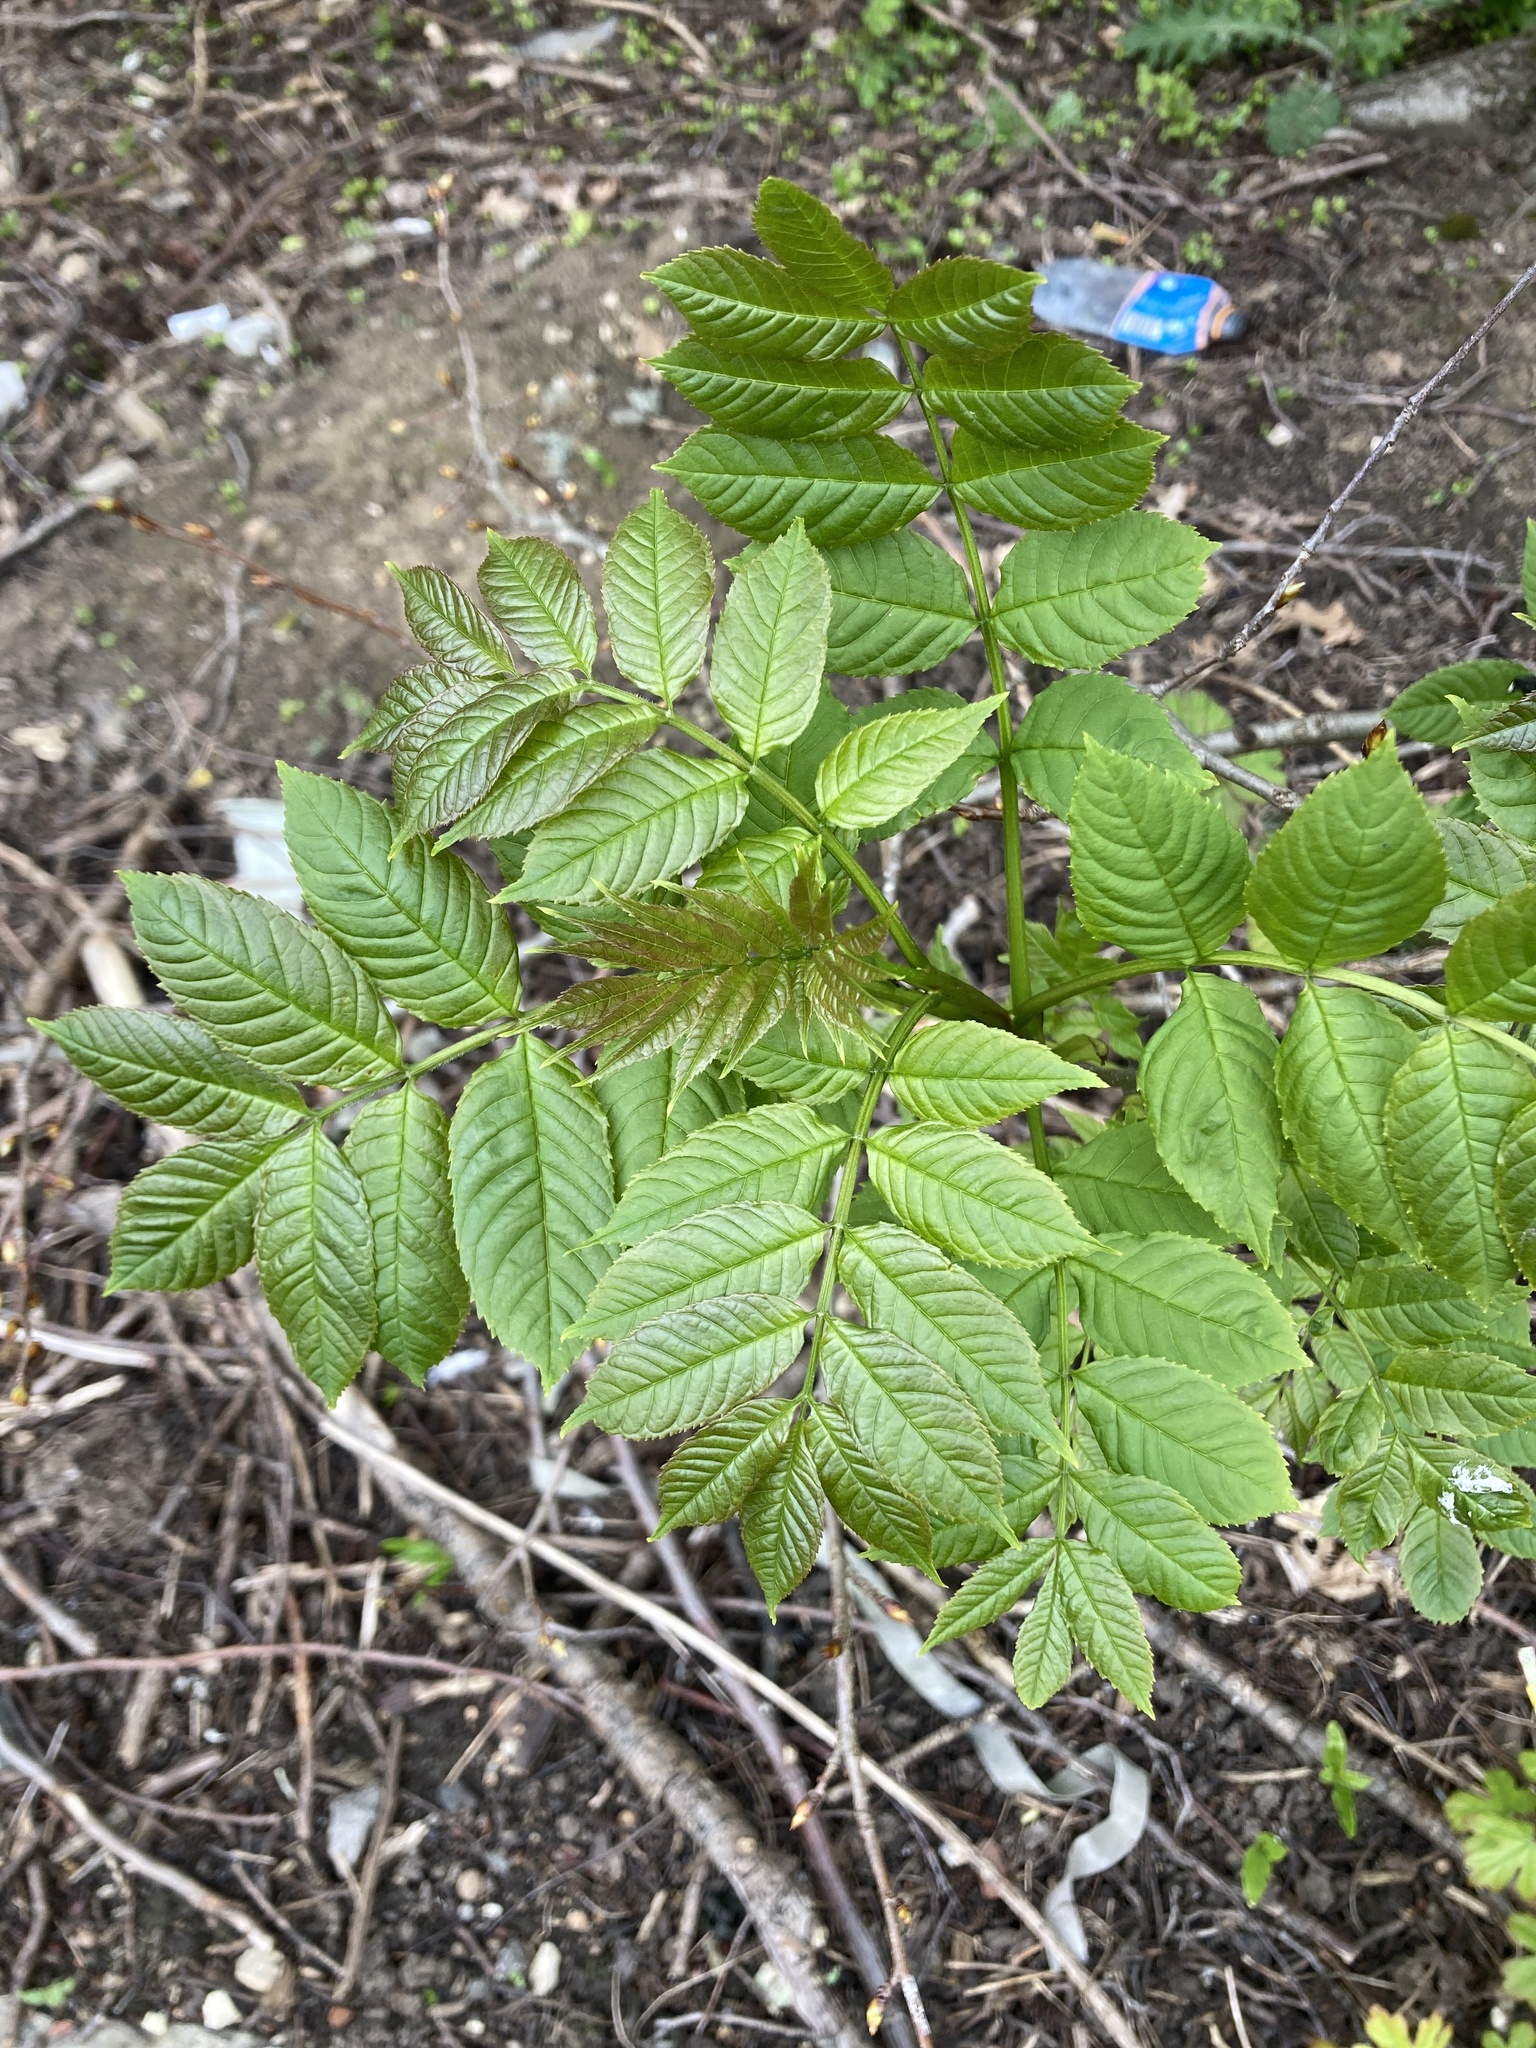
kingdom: Plantae
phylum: Tracheophyta
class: Magnoliopsida
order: Lamiales
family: Oleaceae
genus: Fraxinus
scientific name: Fraxinus excelsior
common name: European ash
